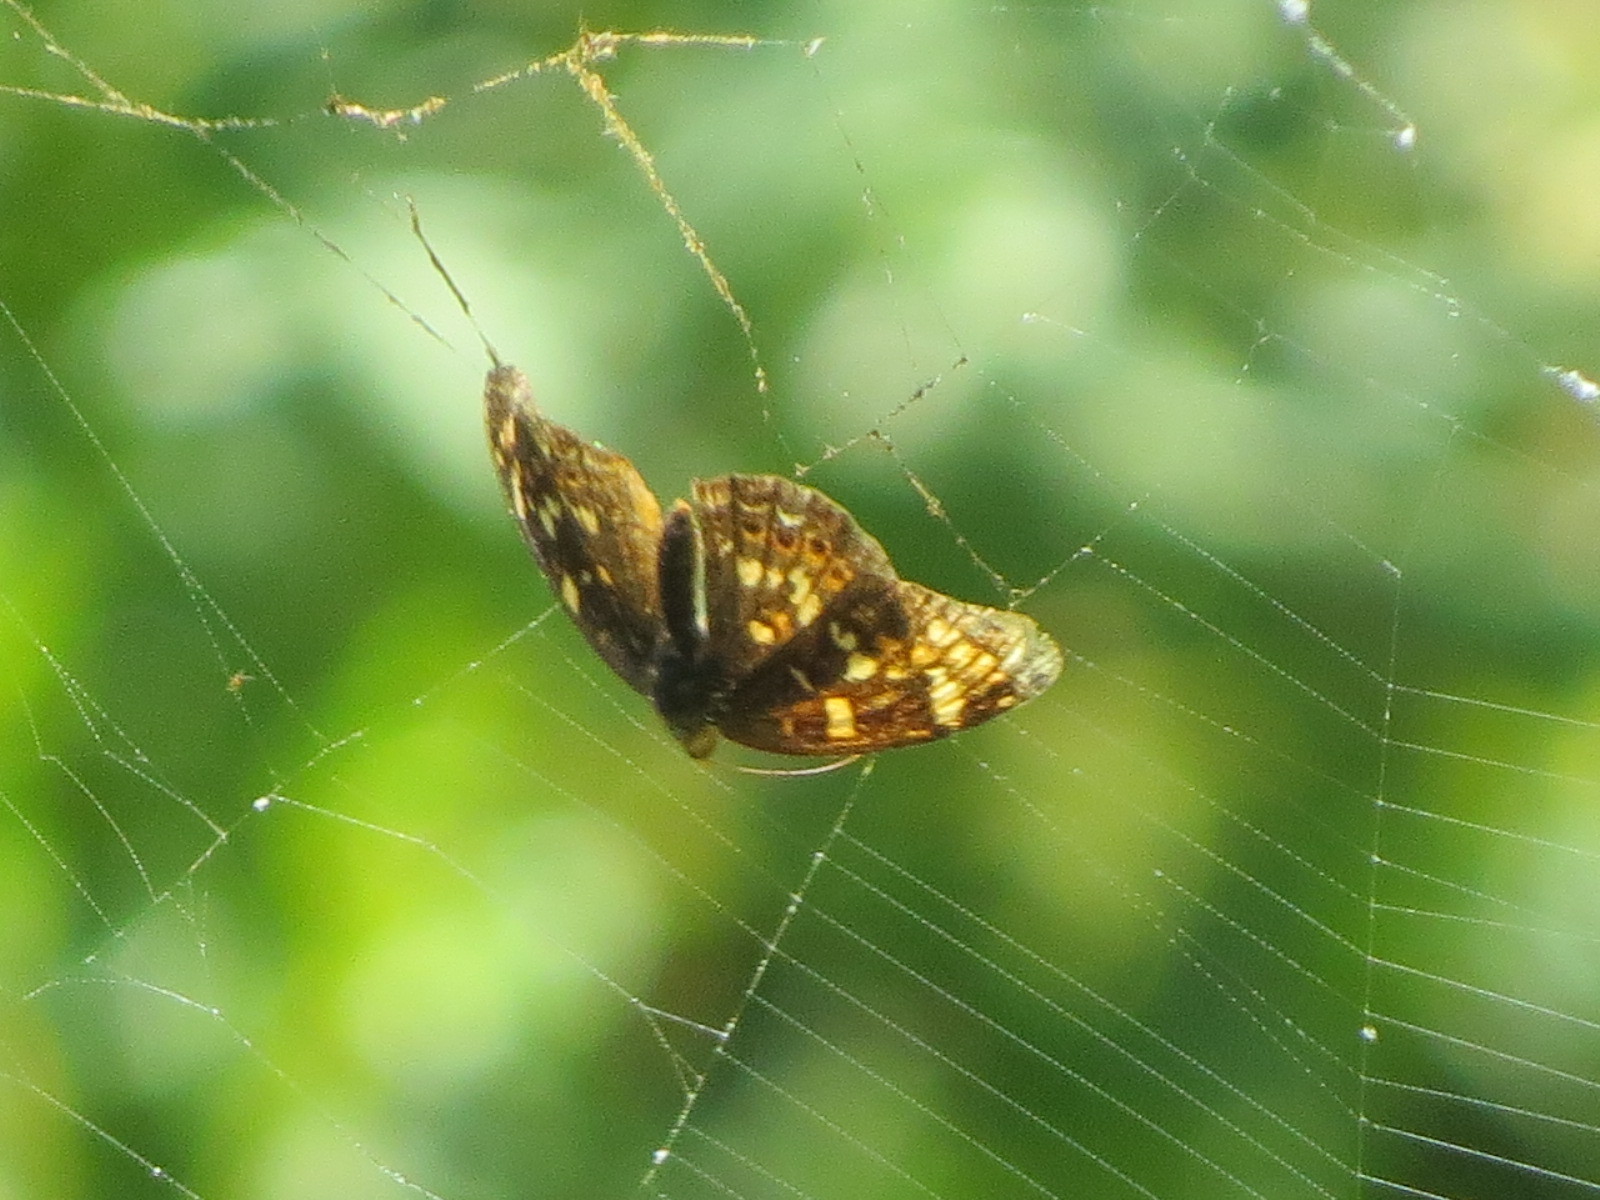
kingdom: Animalia
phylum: Arthropoda
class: Insecta
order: Lepidoptera
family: Nymphalidae
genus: Phyciodes
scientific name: Phyciodes tharos
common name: Pearl crescent
